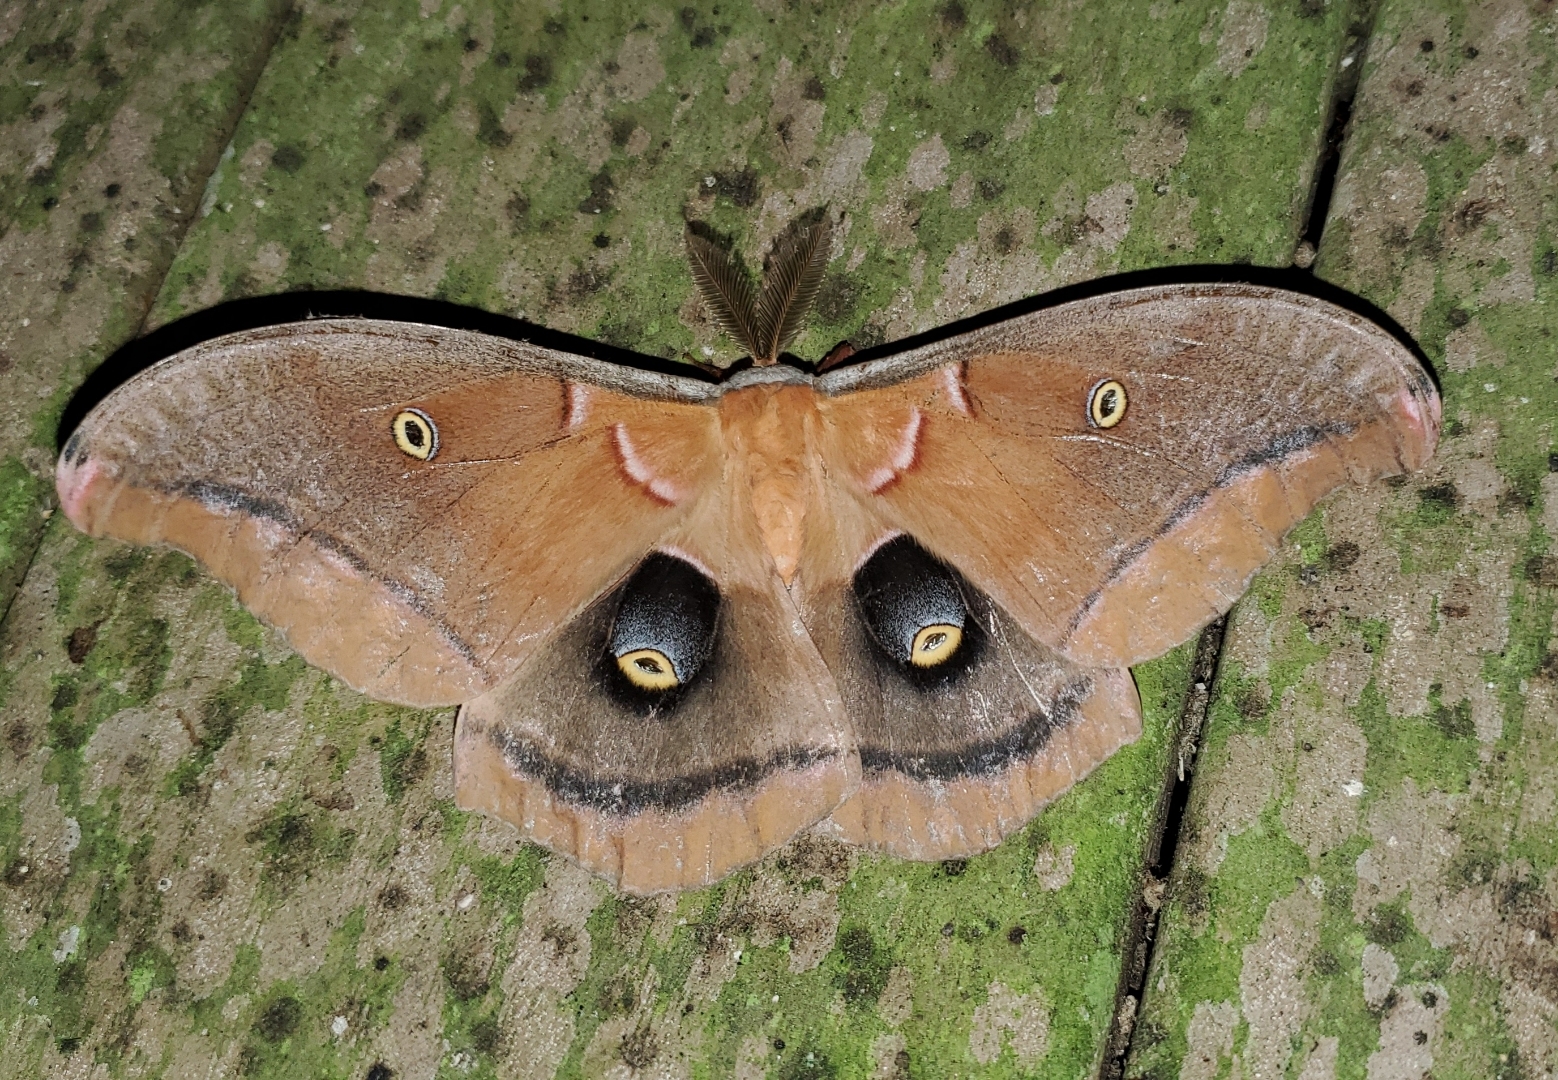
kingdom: Animalia
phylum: Arthropoda
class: Insecta
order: Lepidoptera
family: Saturniidae
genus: Antheraea
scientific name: Antheraea polyphemus
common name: Polyphemus moth
